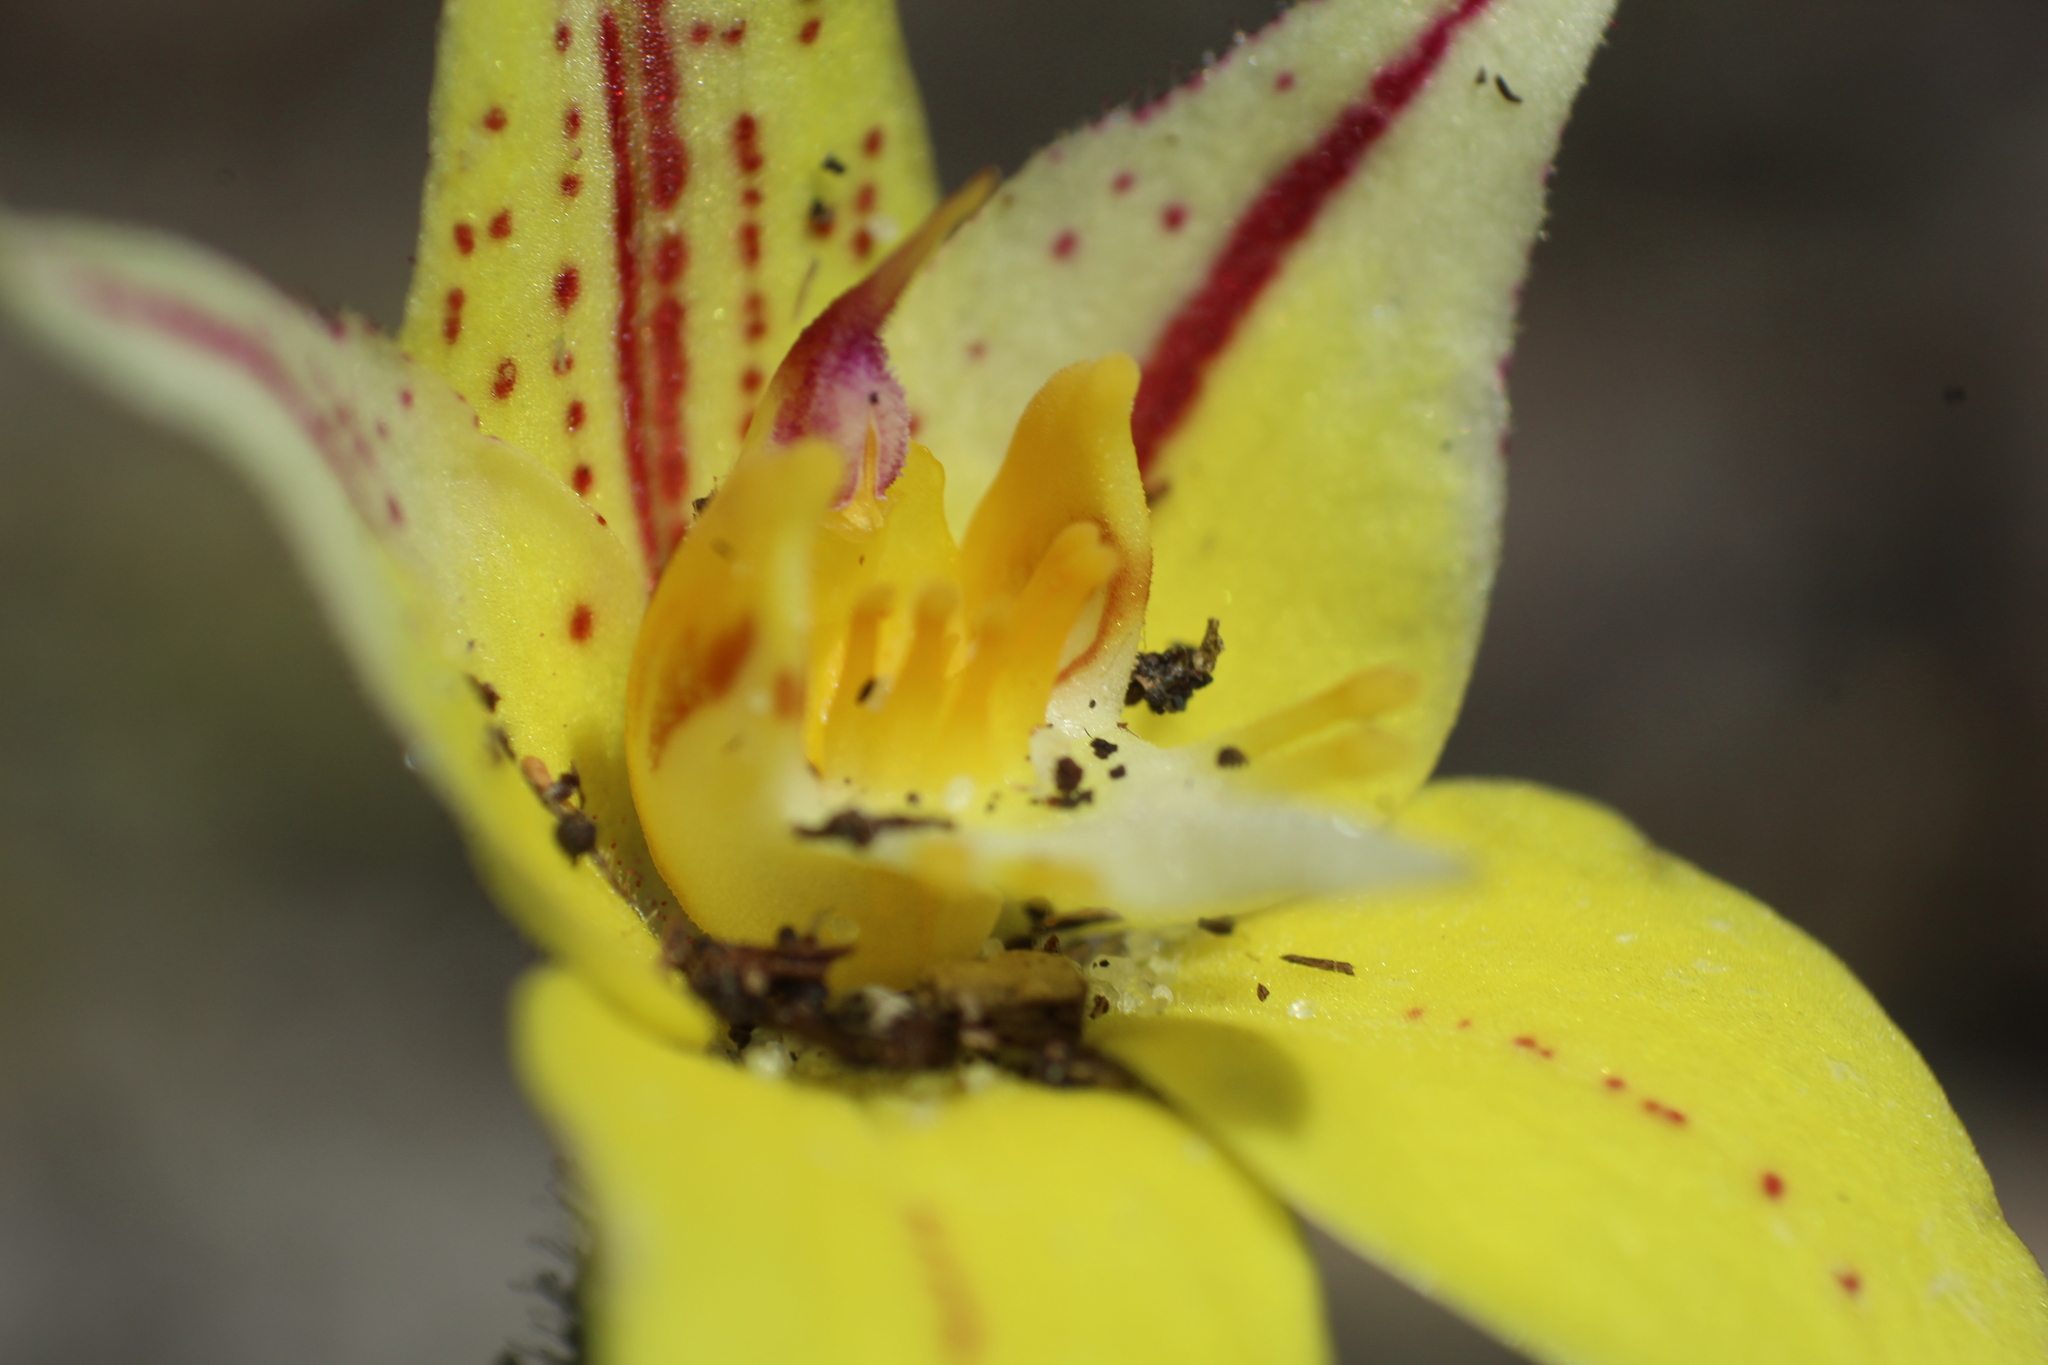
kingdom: Plantae
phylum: Tracheophyta
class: Liliopsida
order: Asparagales
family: Orchidaceae
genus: Caladenia
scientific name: Caladenia flava
